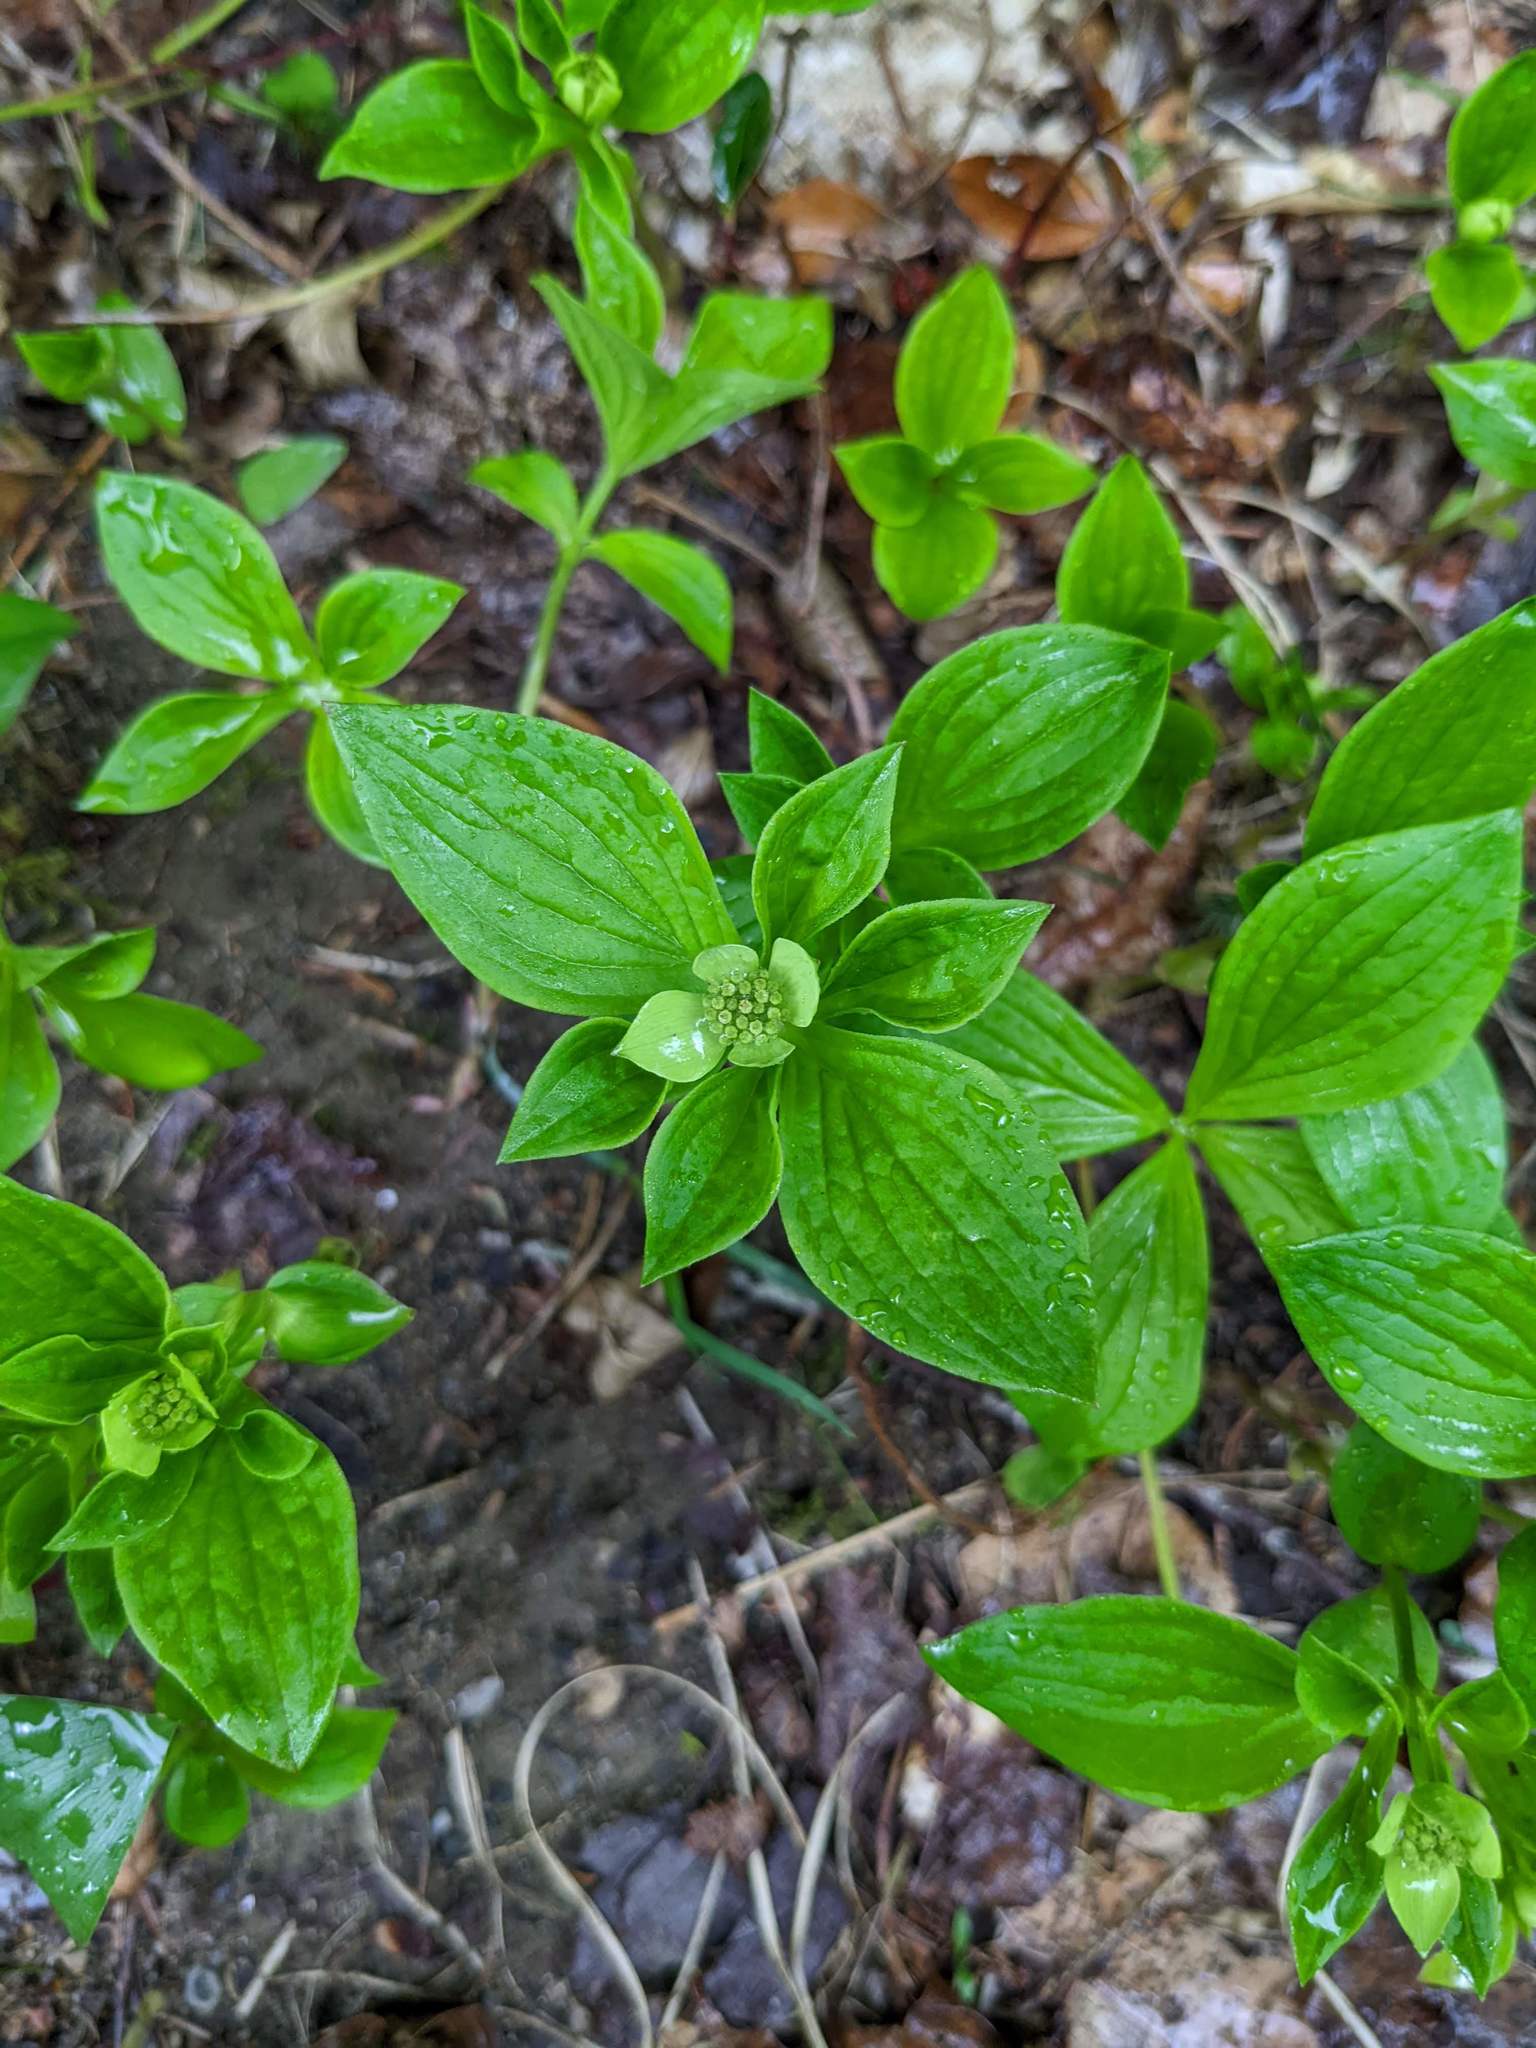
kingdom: Plantae
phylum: Tracheophyta
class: Magnoliopsida
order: Cornales
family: Cornaceae
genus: Cornus
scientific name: Cornus canadensis
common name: Creeping dogwood
